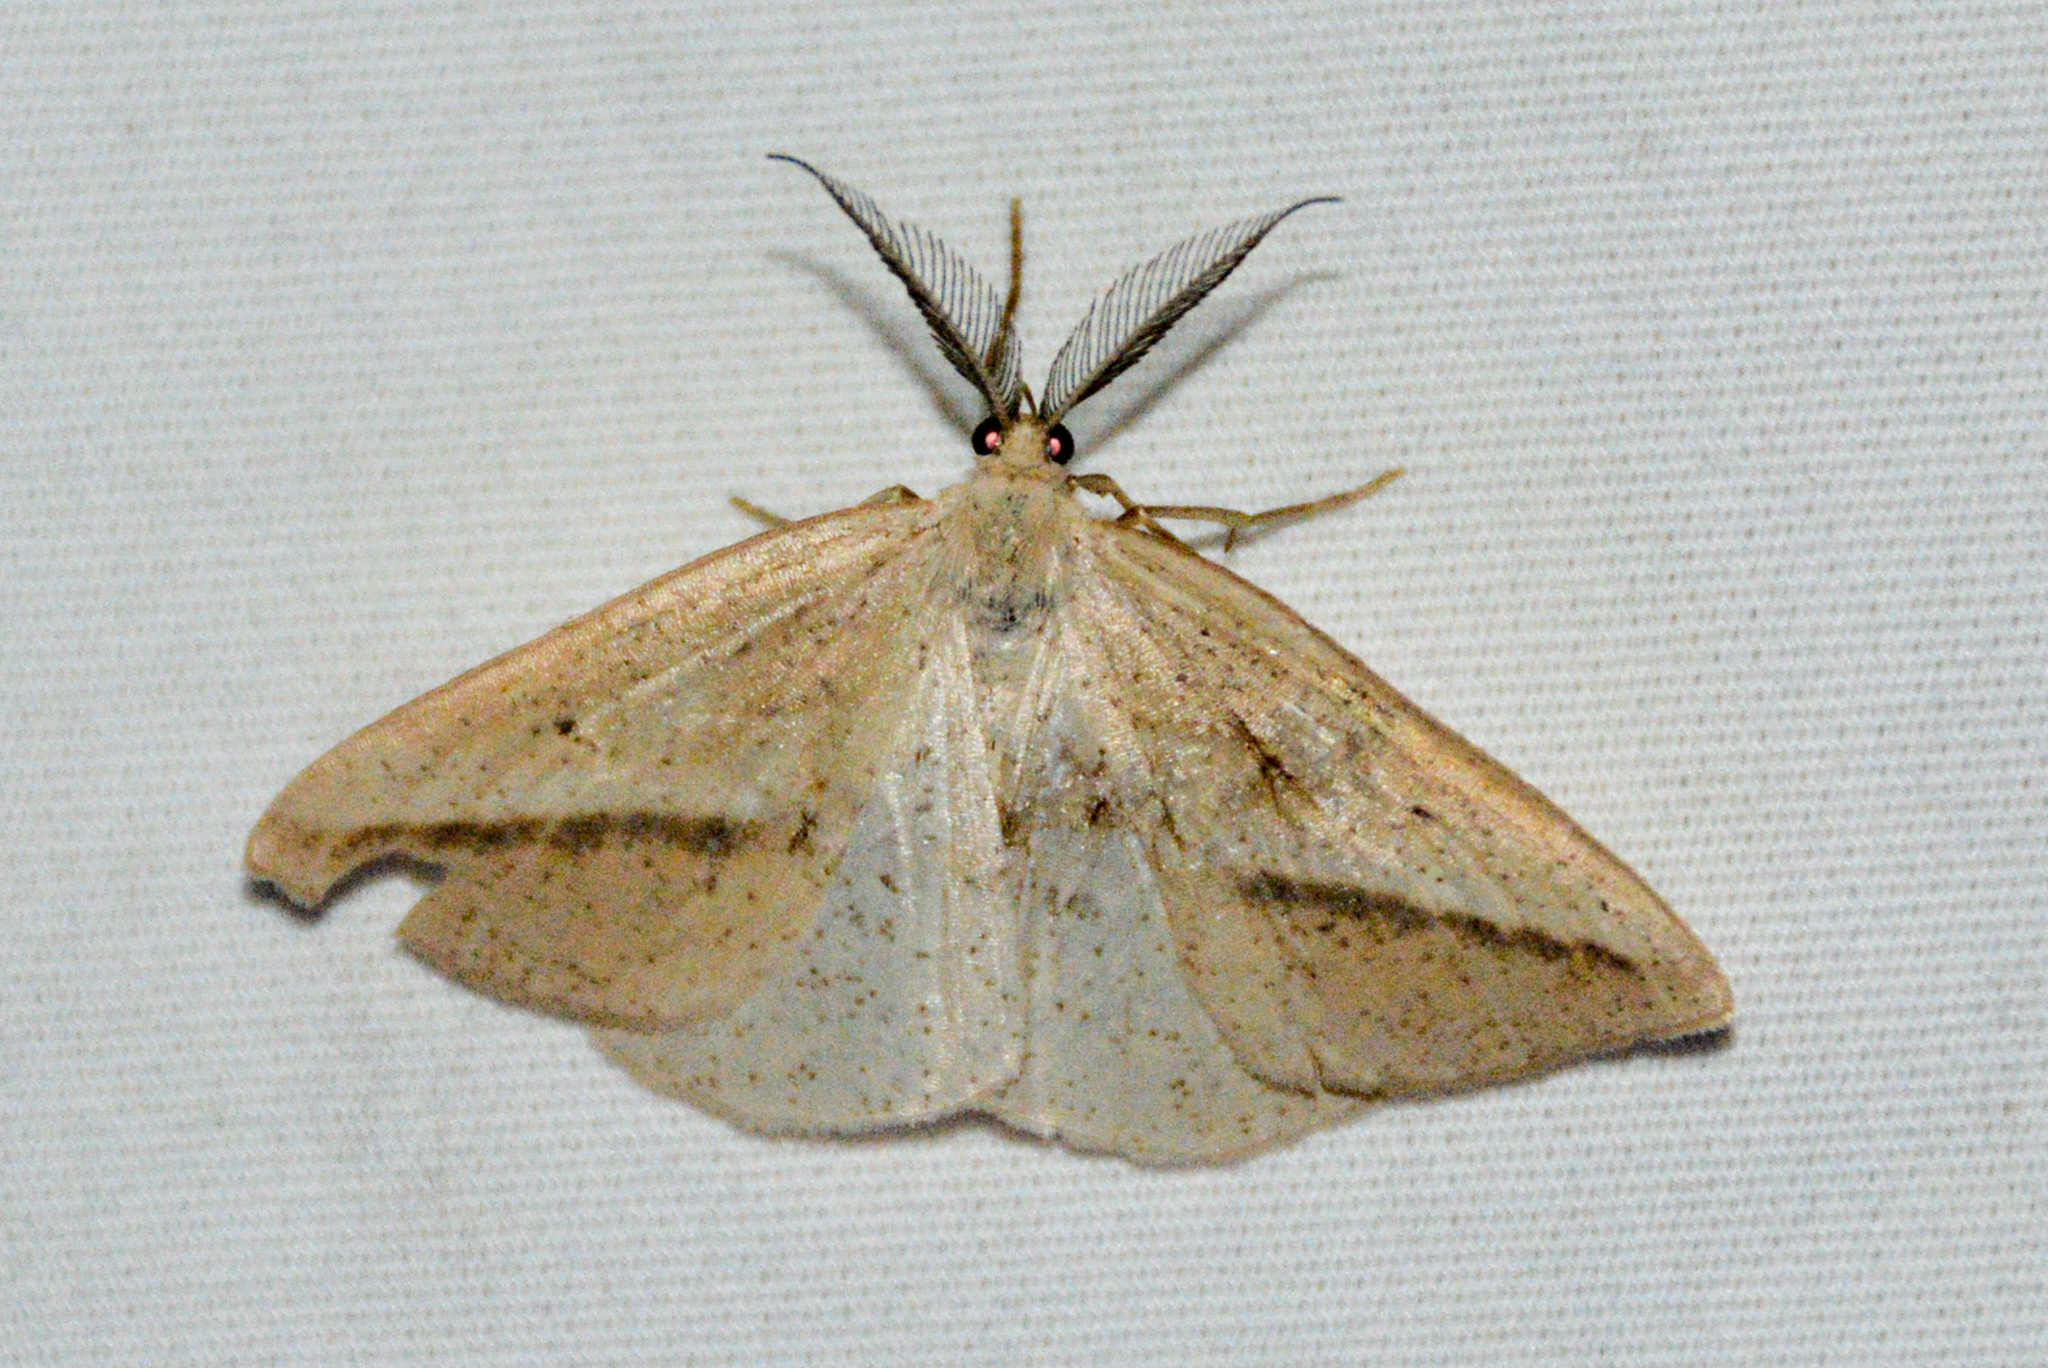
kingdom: Animalia
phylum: Arthropoda
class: Insecta
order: Lepidoptera
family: Geometridae
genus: Lychnosea
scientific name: Lychnosea intermicata
